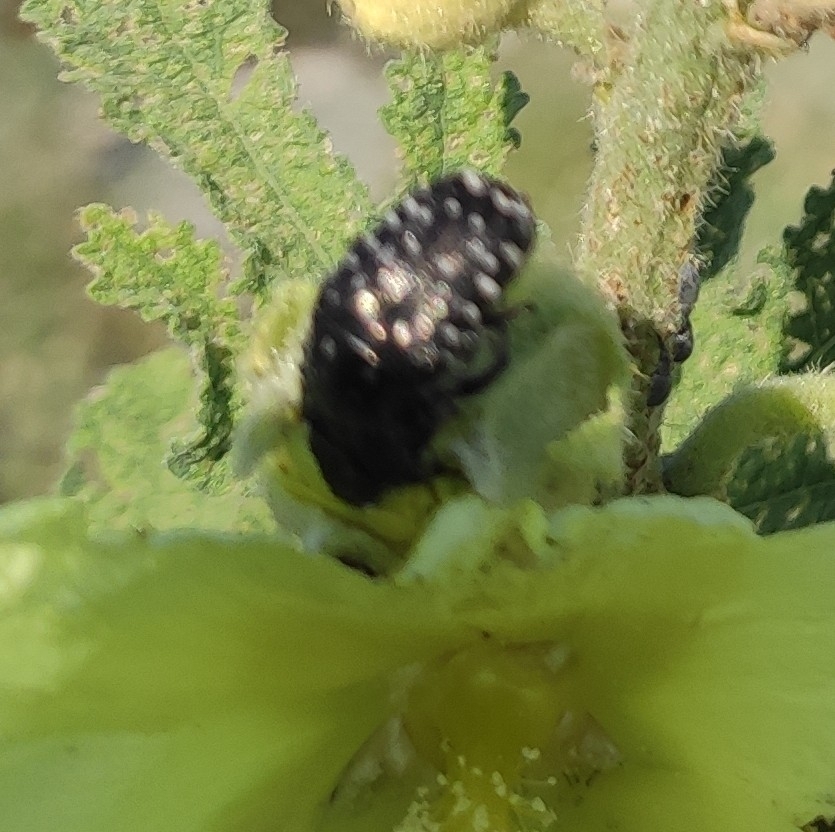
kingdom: Animalia
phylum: Arthropoda
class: Insecta
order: Coleoptera
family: Scarabaeidae
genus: Oxythyrea
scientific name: Oxythyrea funesta
